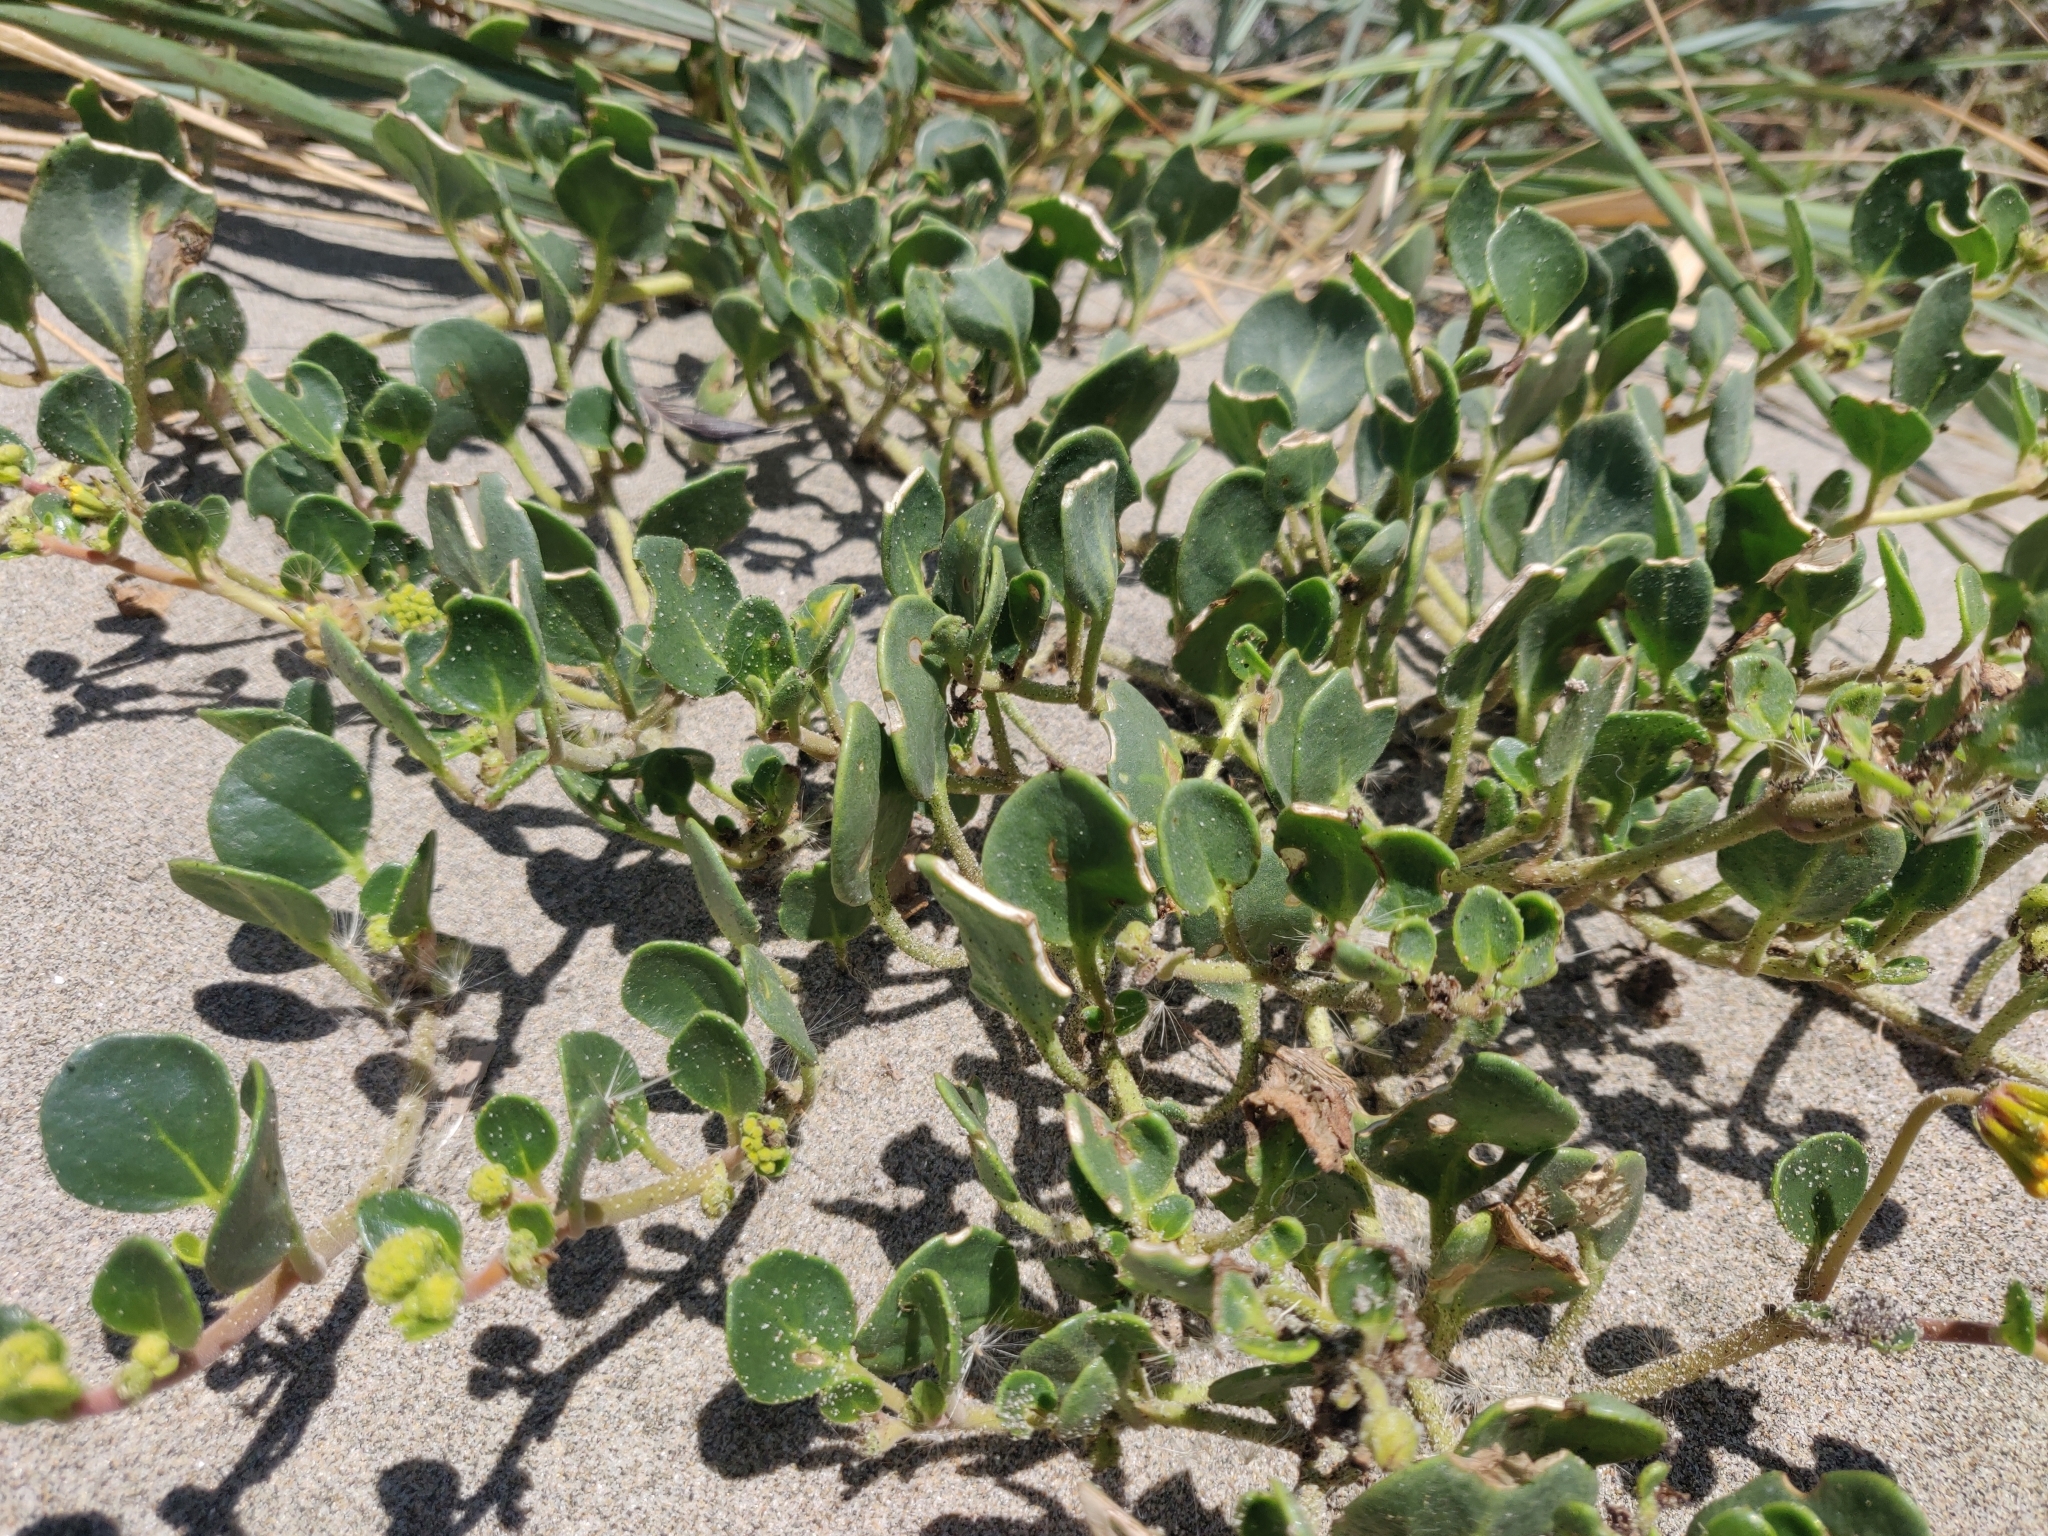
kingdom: Plantae
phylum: Tracheophyta
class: Magnoliopsida
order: Caryophyllales
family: Nyctaginaceae
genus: Abronia
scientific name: Abronia latifolia
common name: Yellow sand-verbena
